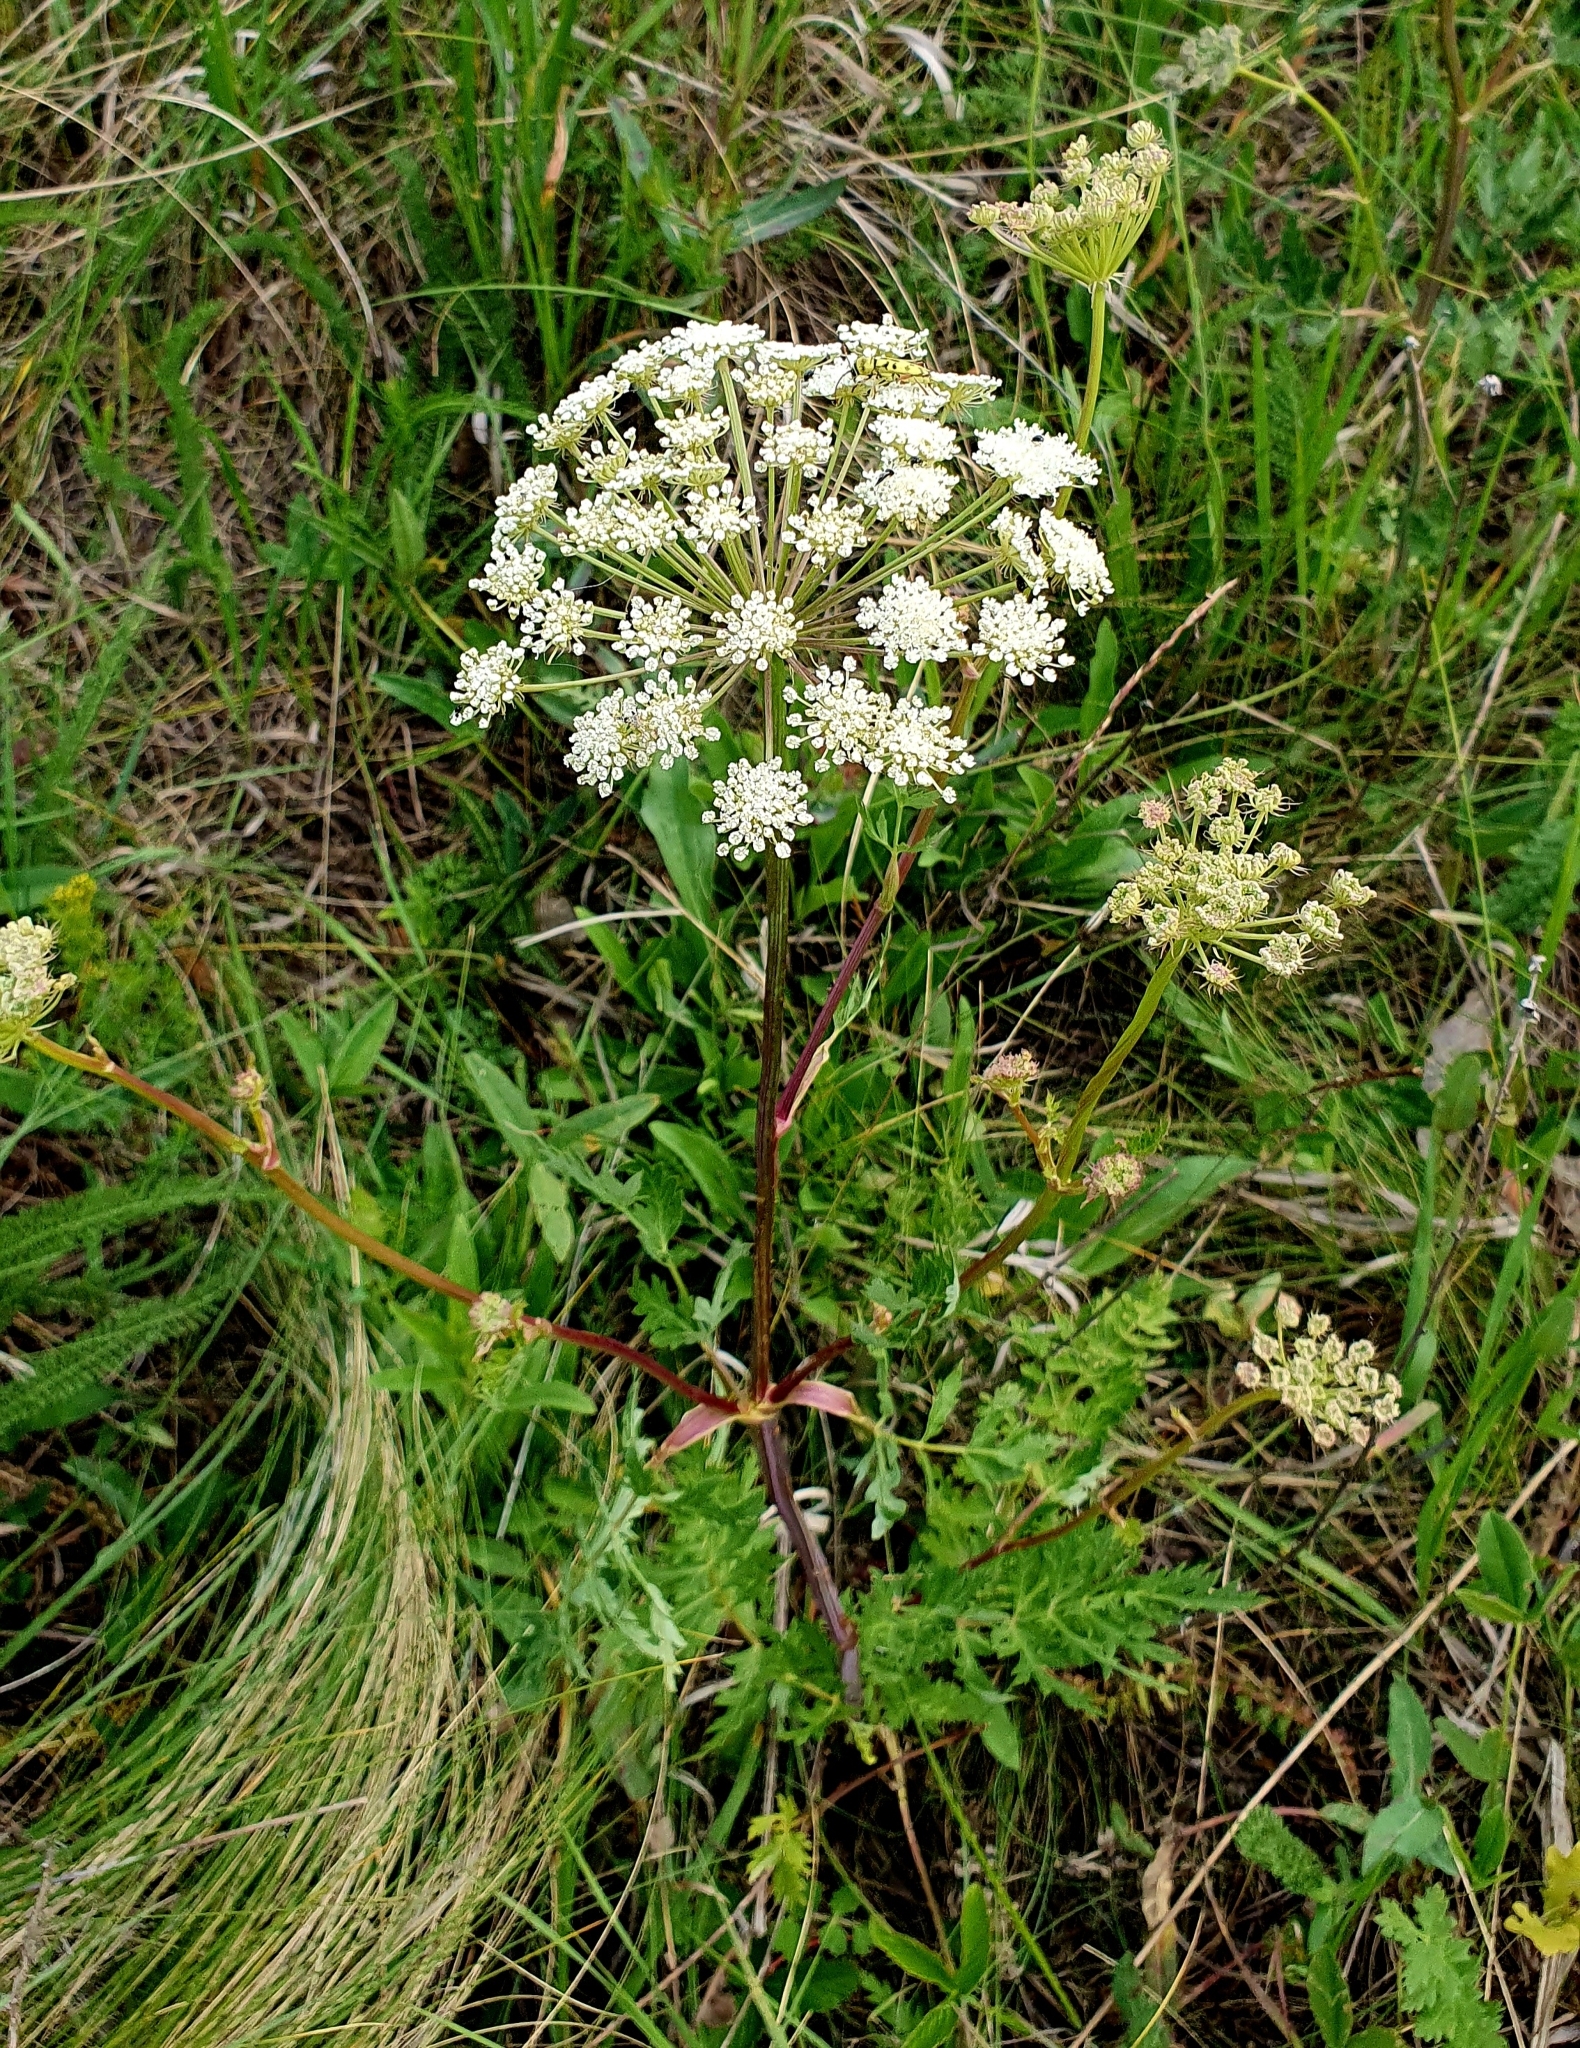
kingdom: Plantae
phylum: Tracheophyta
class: Magnoliopsida
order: Apiales
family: Apiaceae
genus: Seseli
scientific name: Seseli libanotis
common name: Mooncarrot
